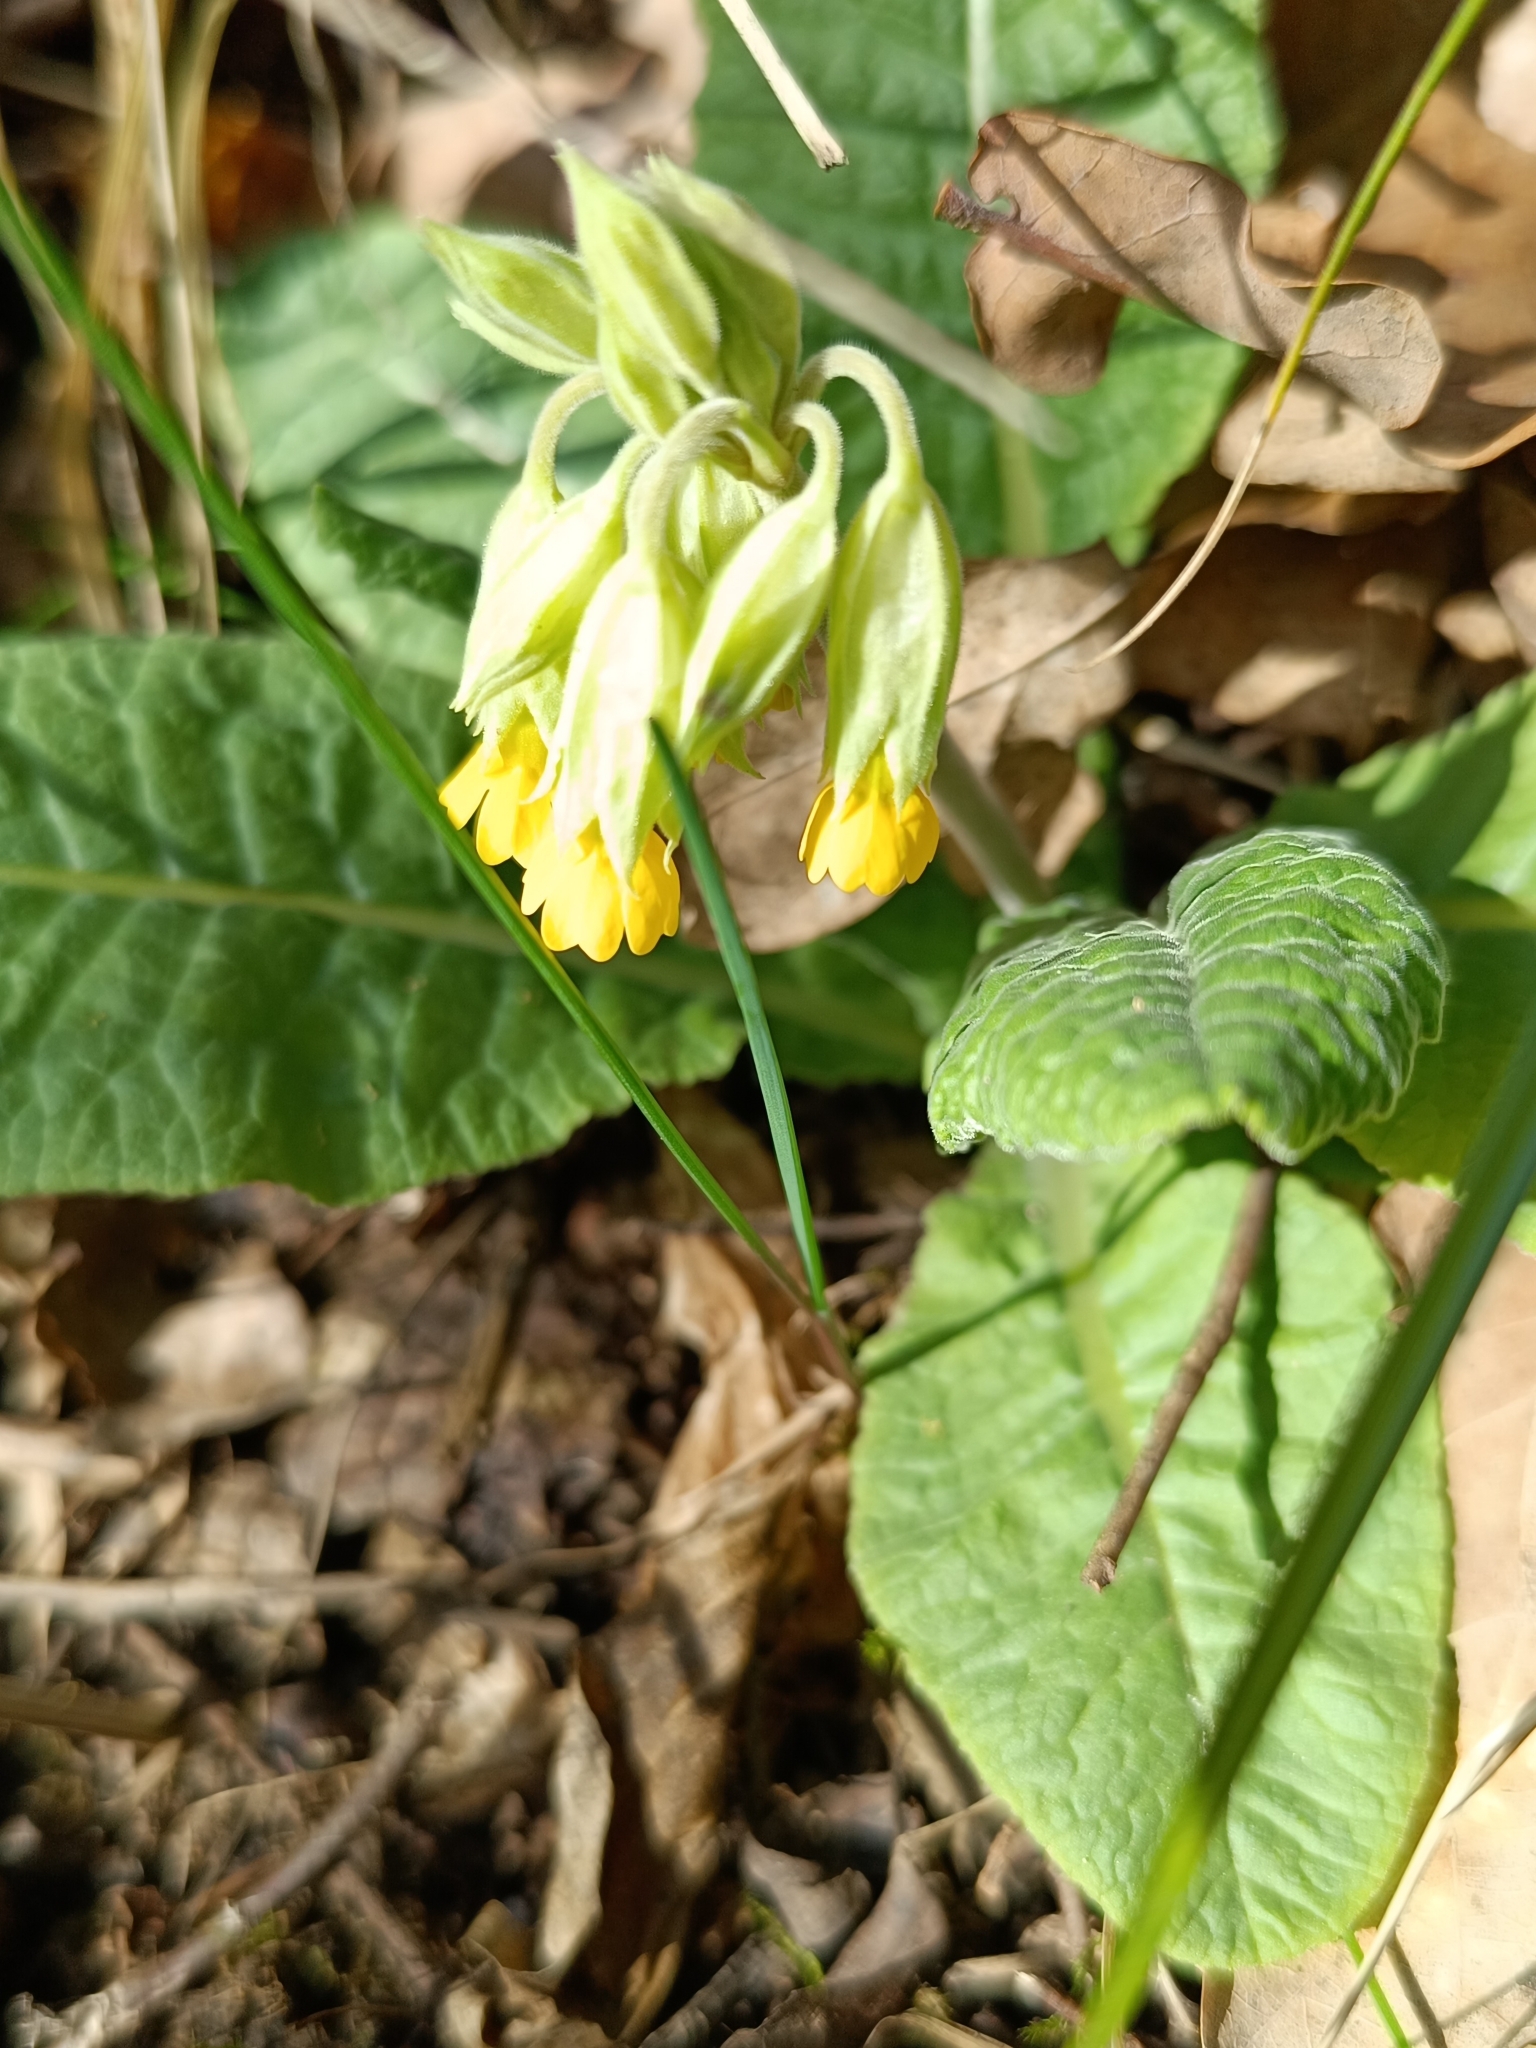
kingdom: Plantae
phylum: Tracheophyta
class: Magnoliopsida
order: Ericales
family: Primulaceae
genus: Primula
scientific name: Primula veris
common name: Cowslip
